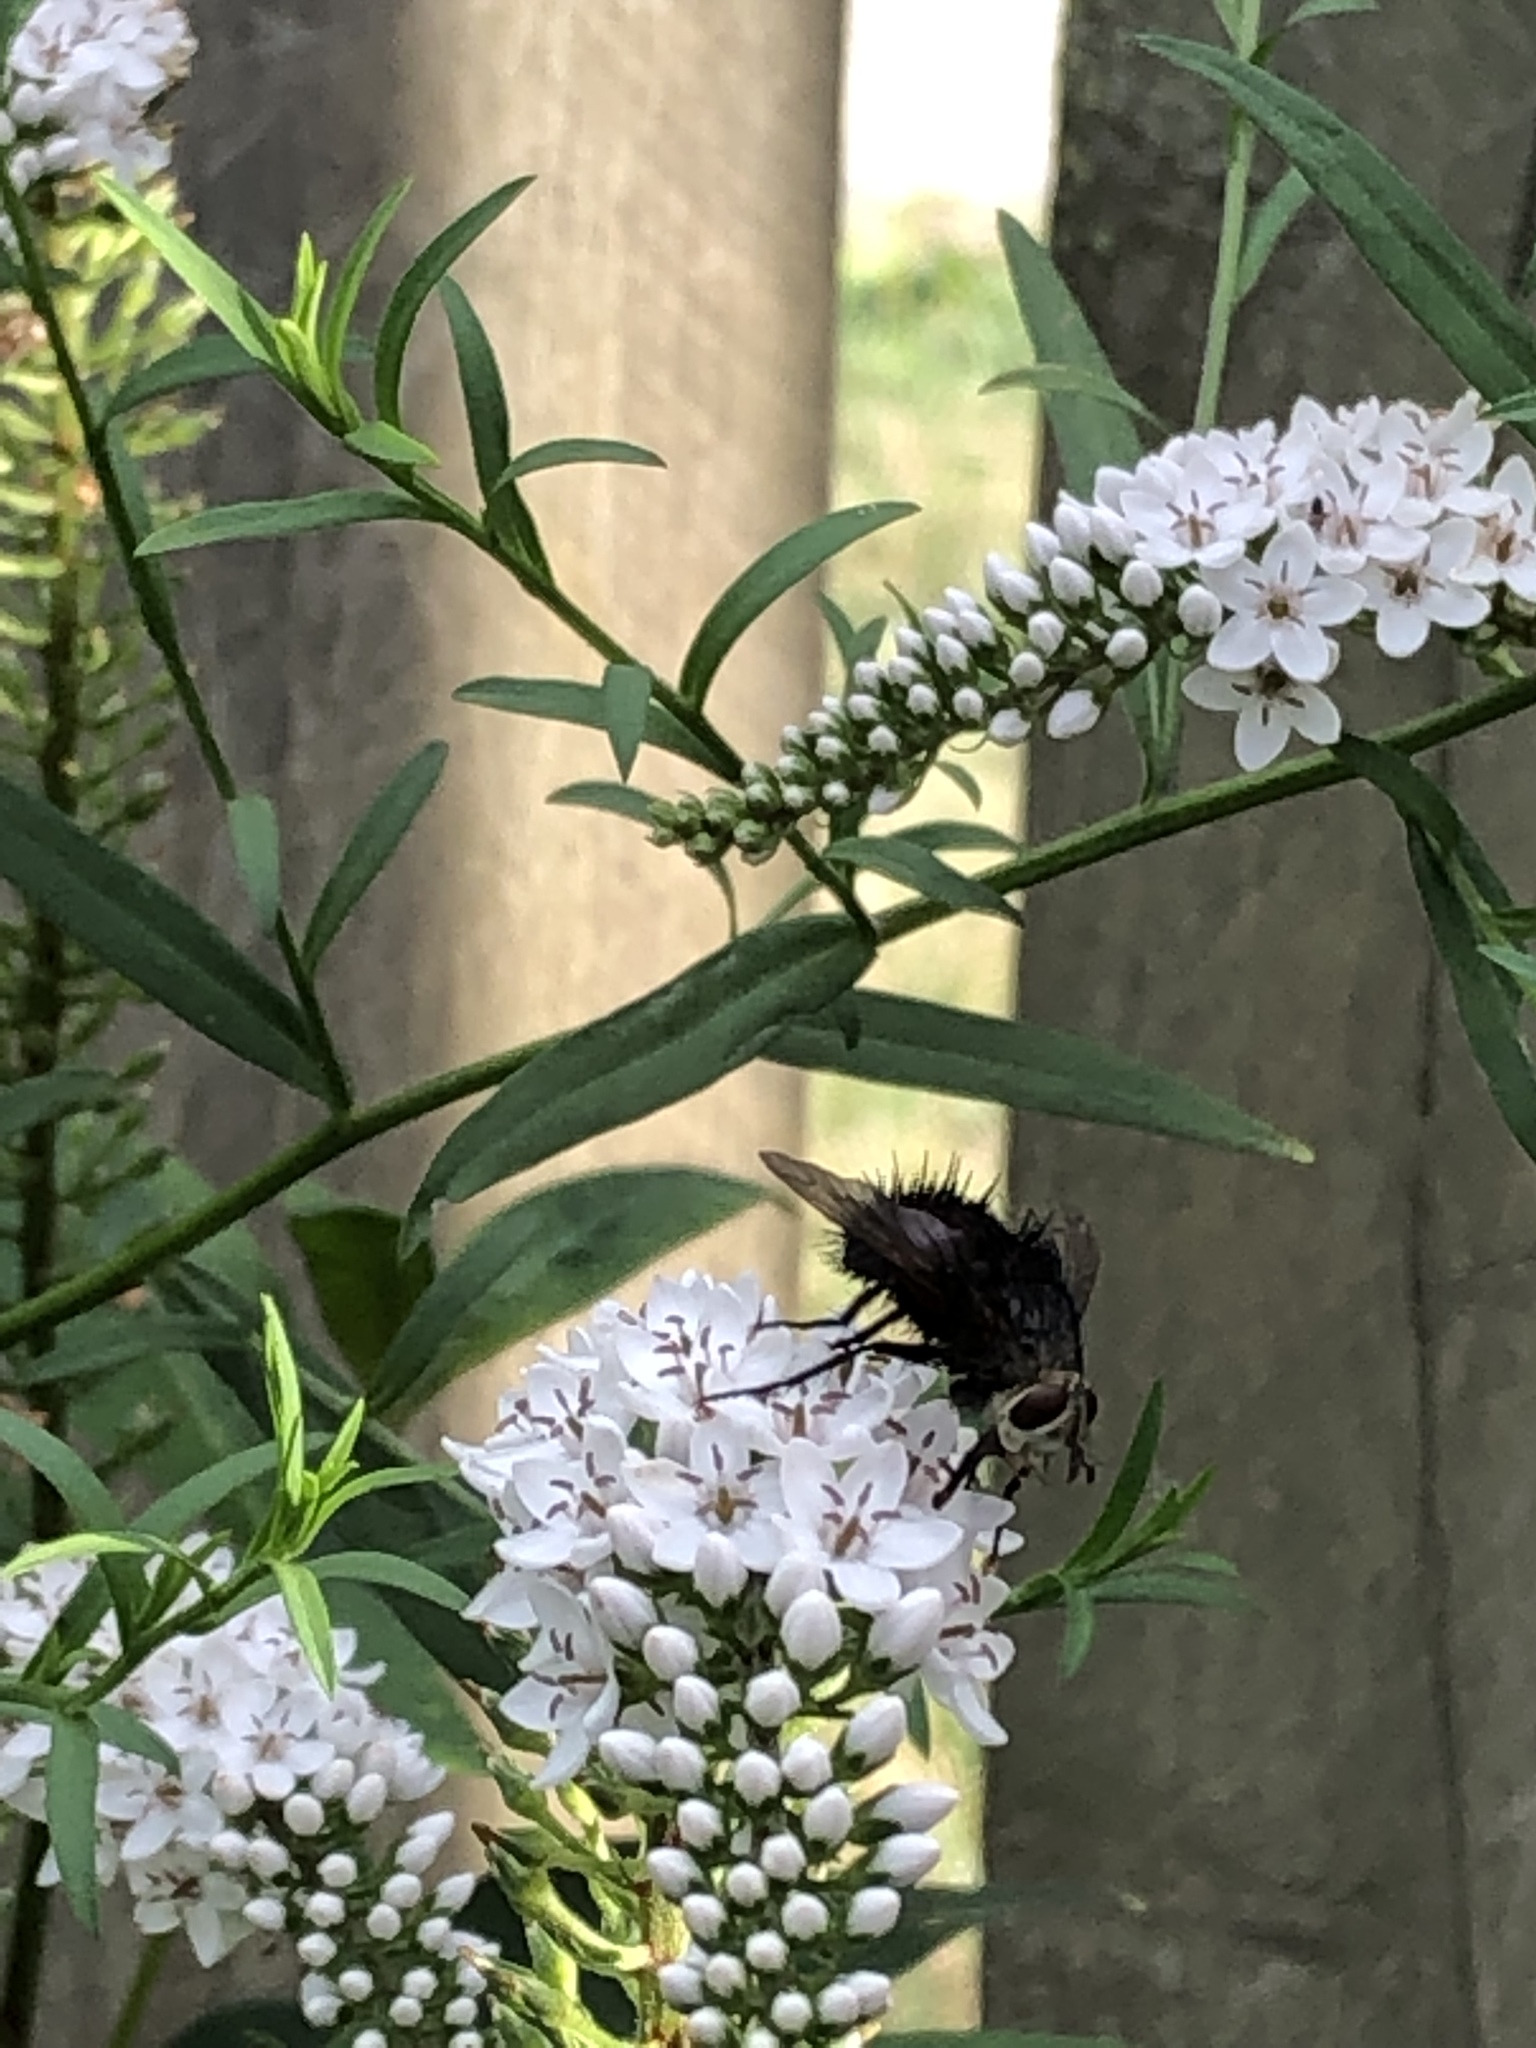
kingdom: Animalia
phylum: Arthropoda
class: Insecta
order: Diptera
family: Tachinidae
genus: Juriniopsis
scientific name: Juriniopsis adusta
